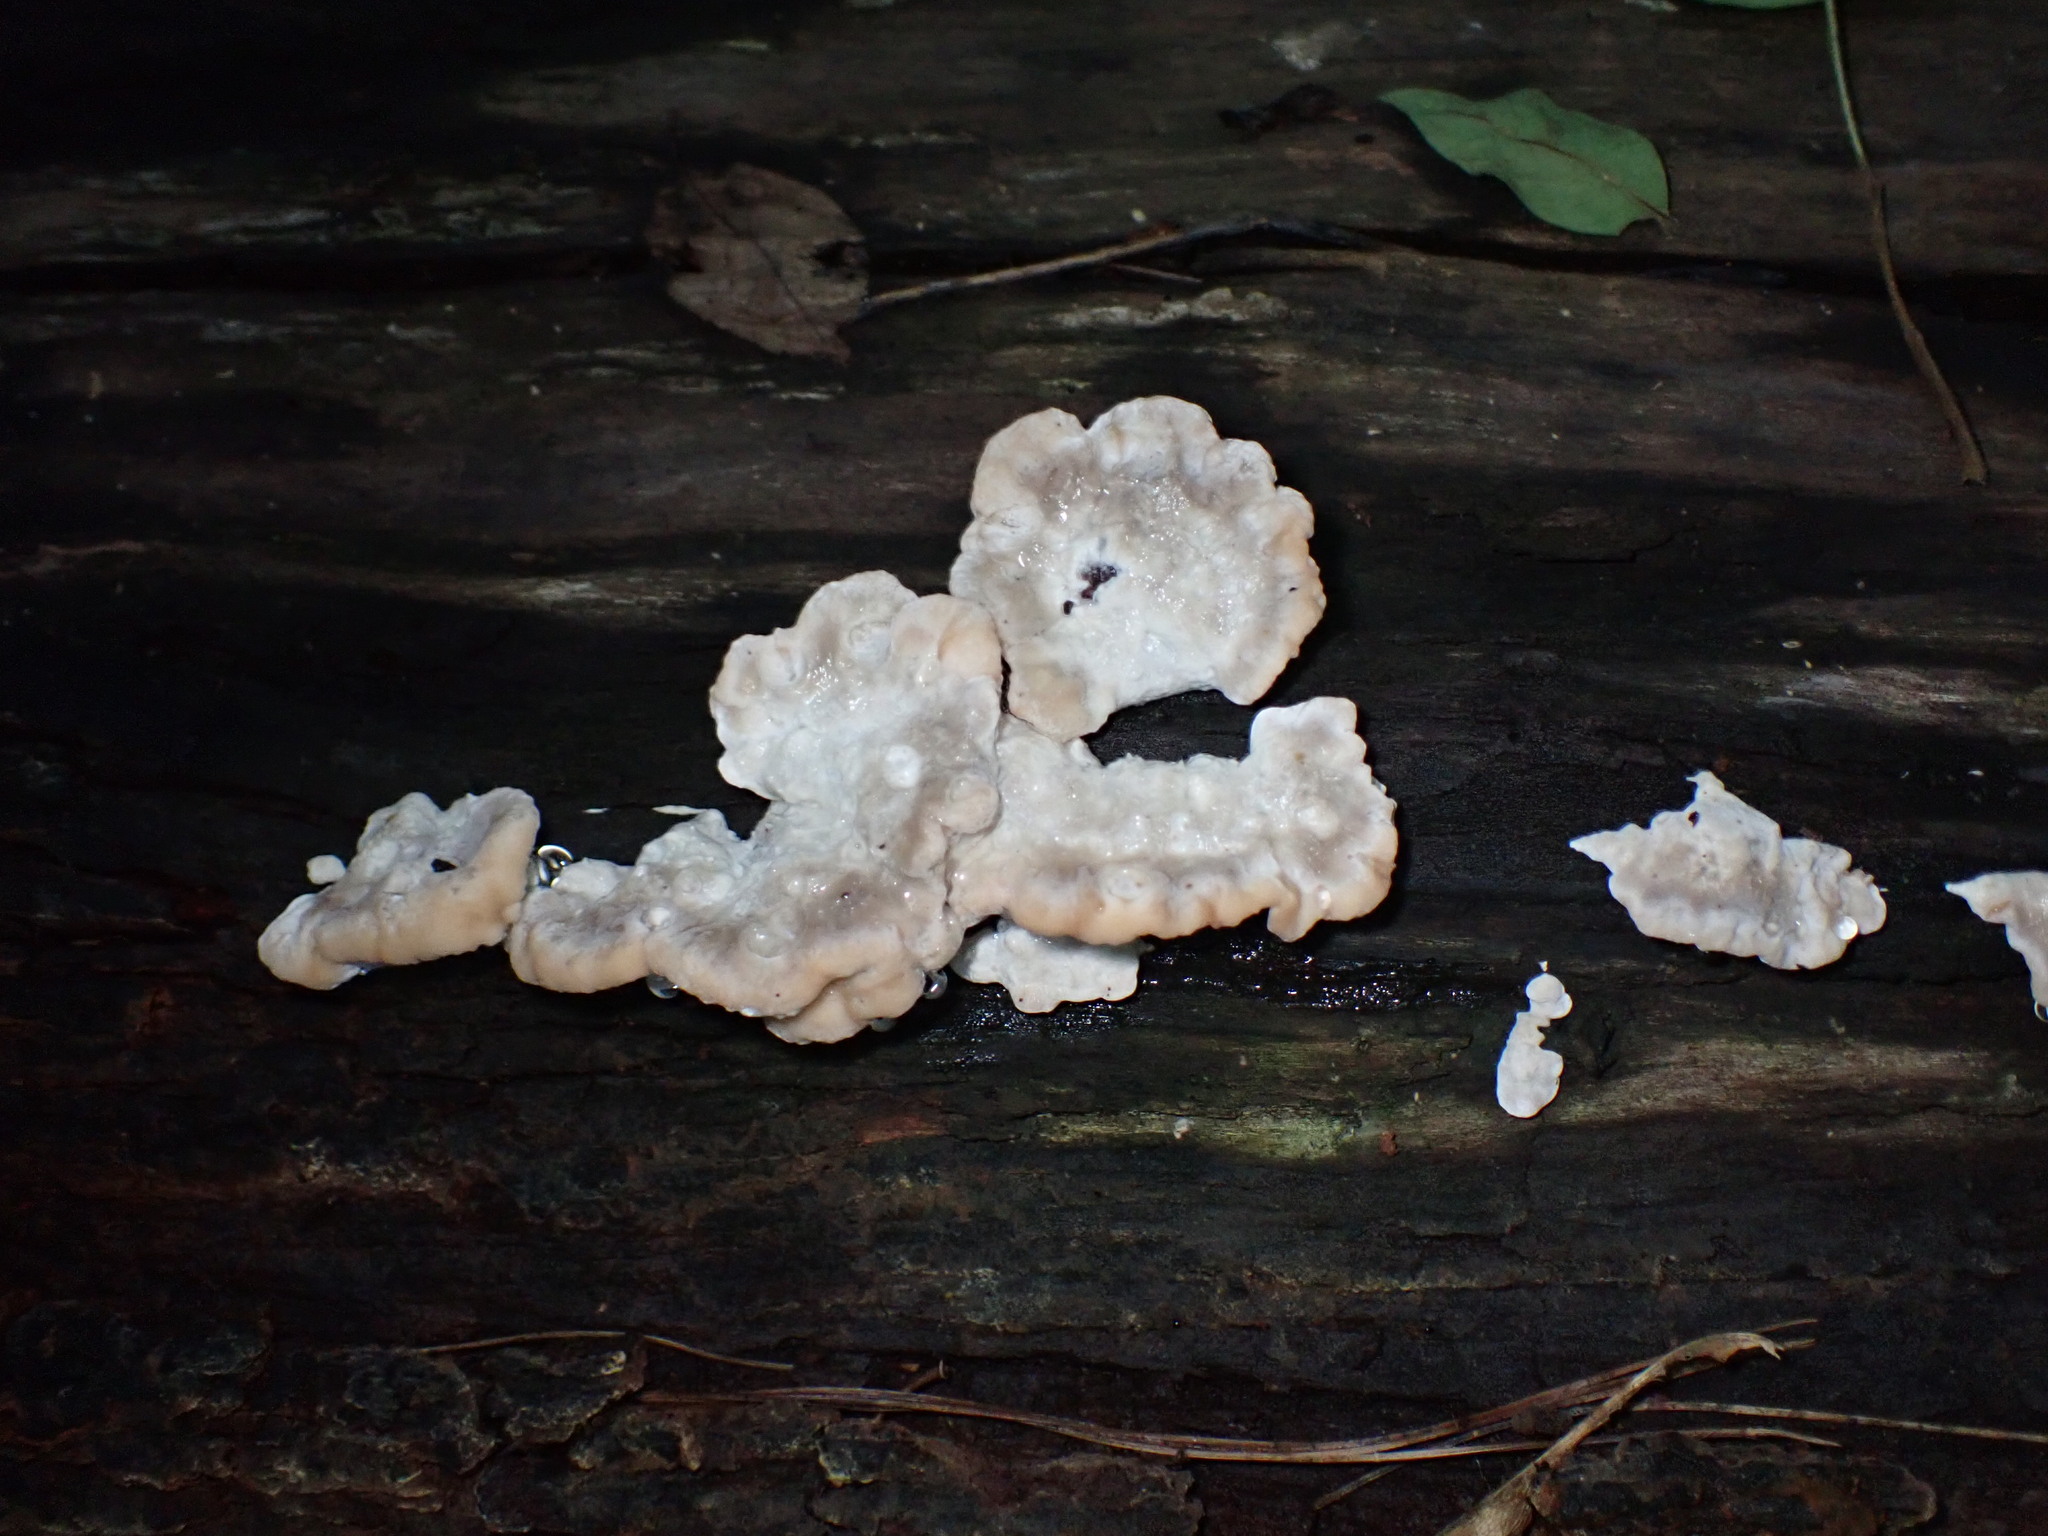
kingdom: Fungi
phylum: Basidiomycota
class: Agaricomycetes
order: Polyporales
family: Fomitopsidaceae
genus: Niveoporofomes
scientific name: Niveoporofomes spraguei
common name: Green cheese polypore
